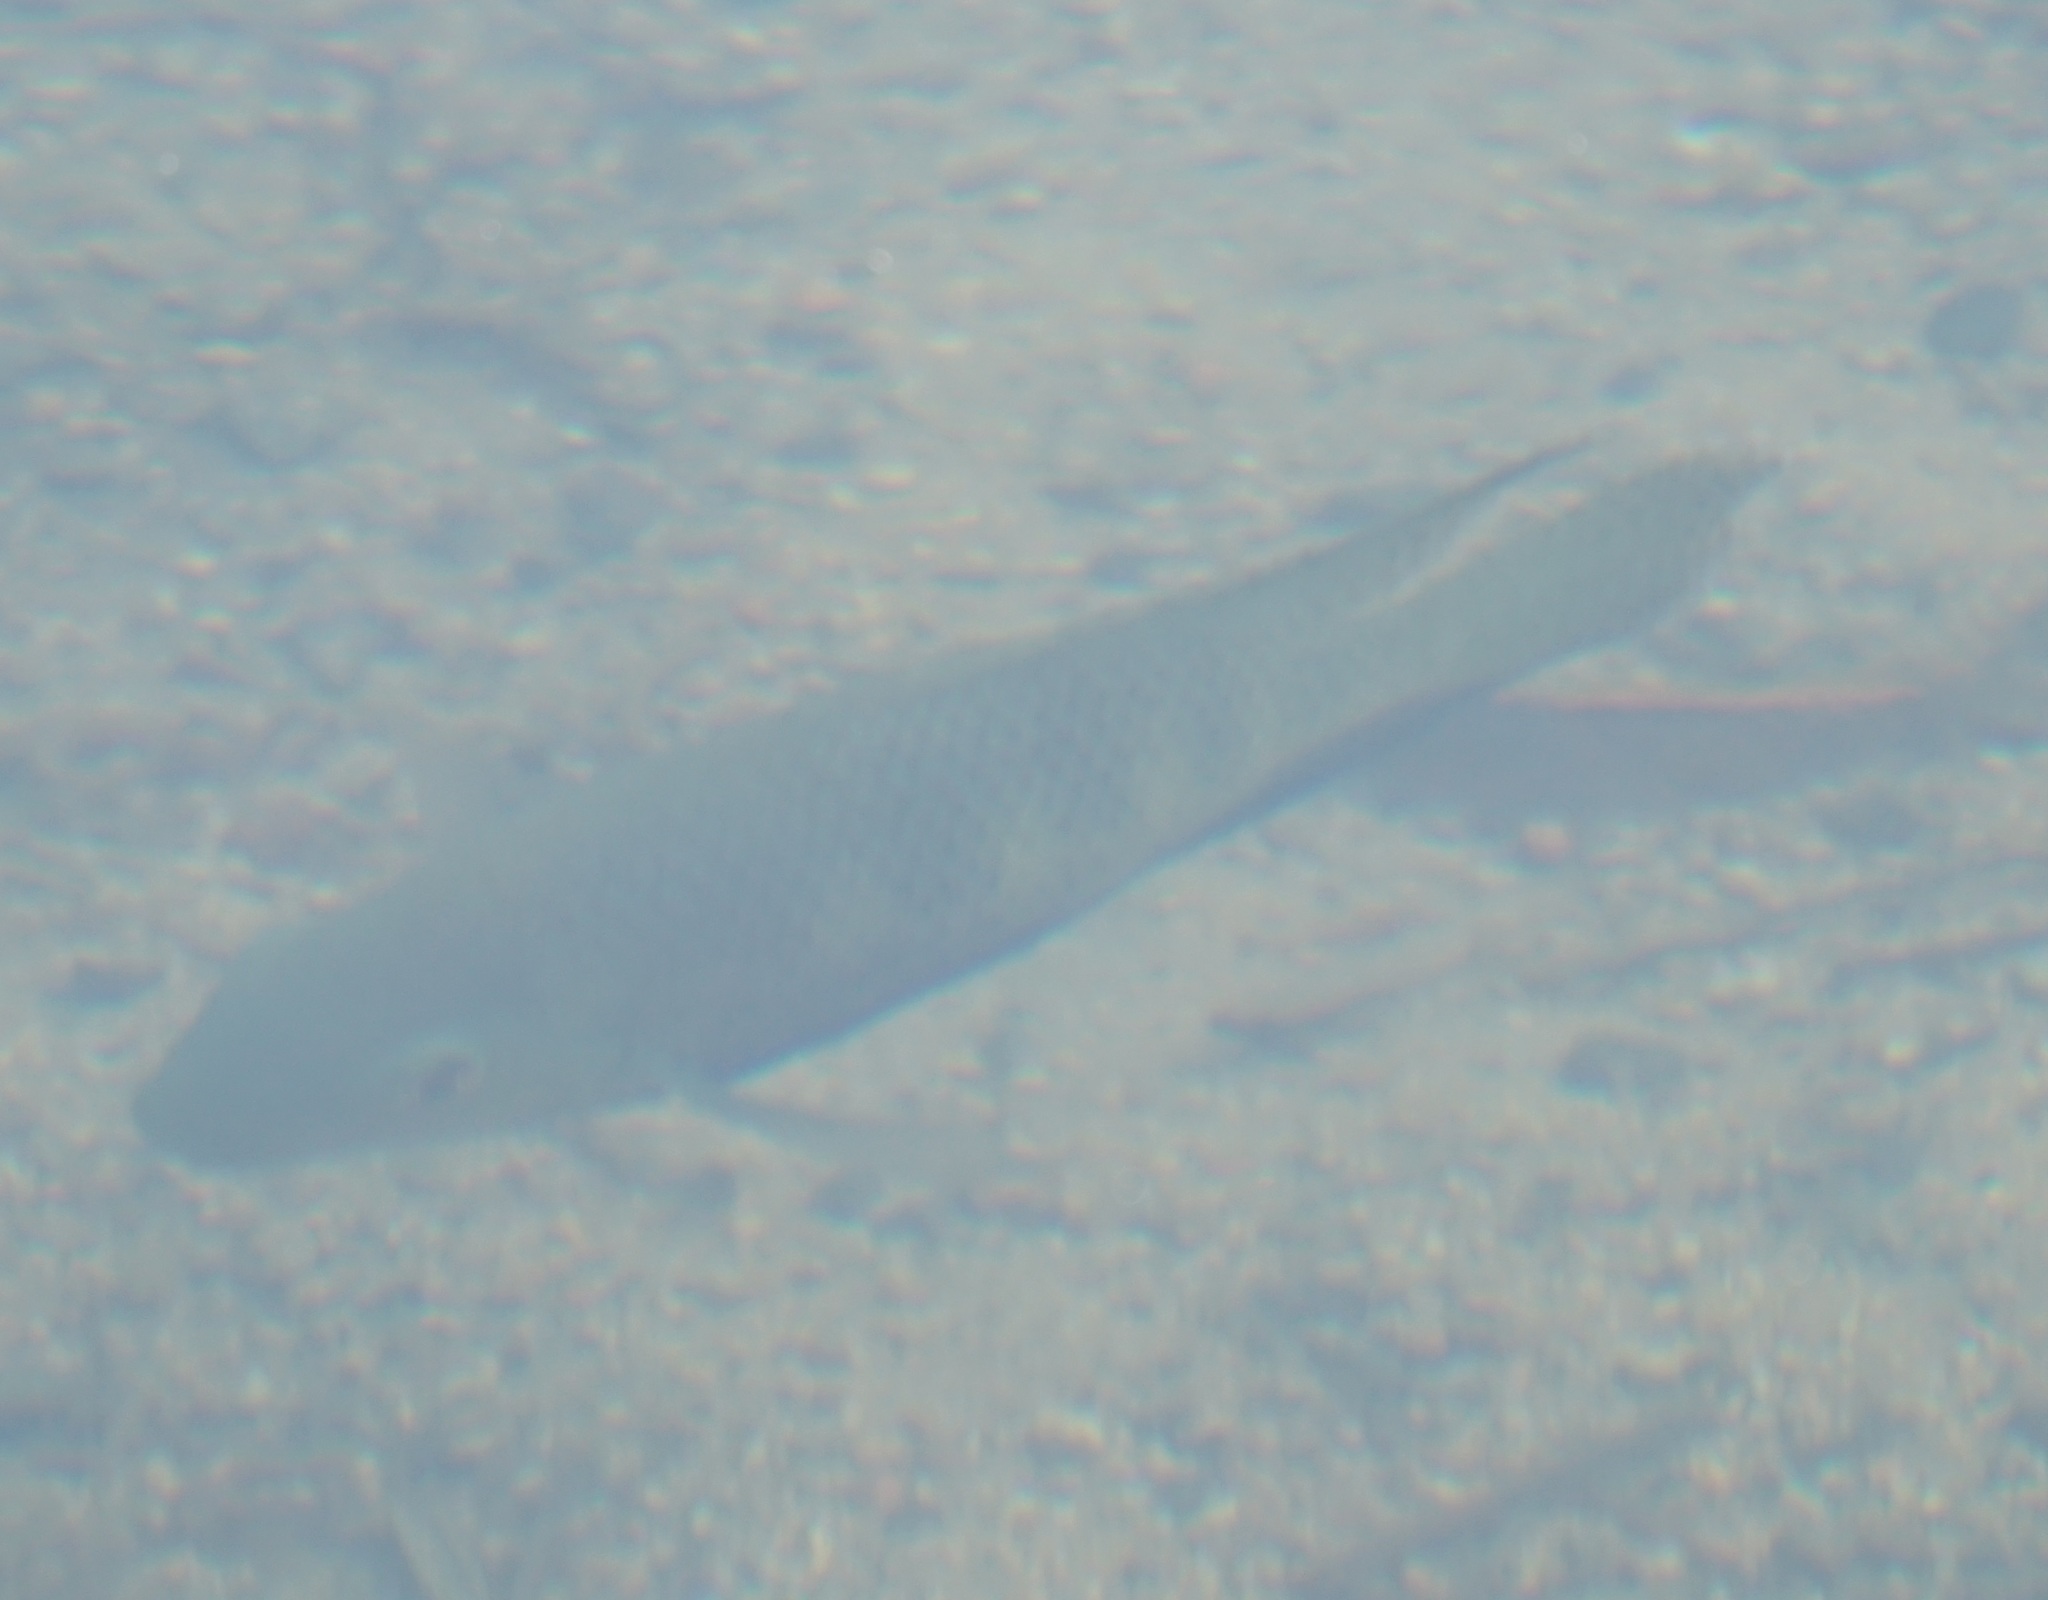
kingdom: Animalia
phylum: Chordata
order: Perciformes
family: Cichlidae
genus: Pelmatolapia
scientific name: Pelmatolapia mariae
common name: Spotted tilapia
